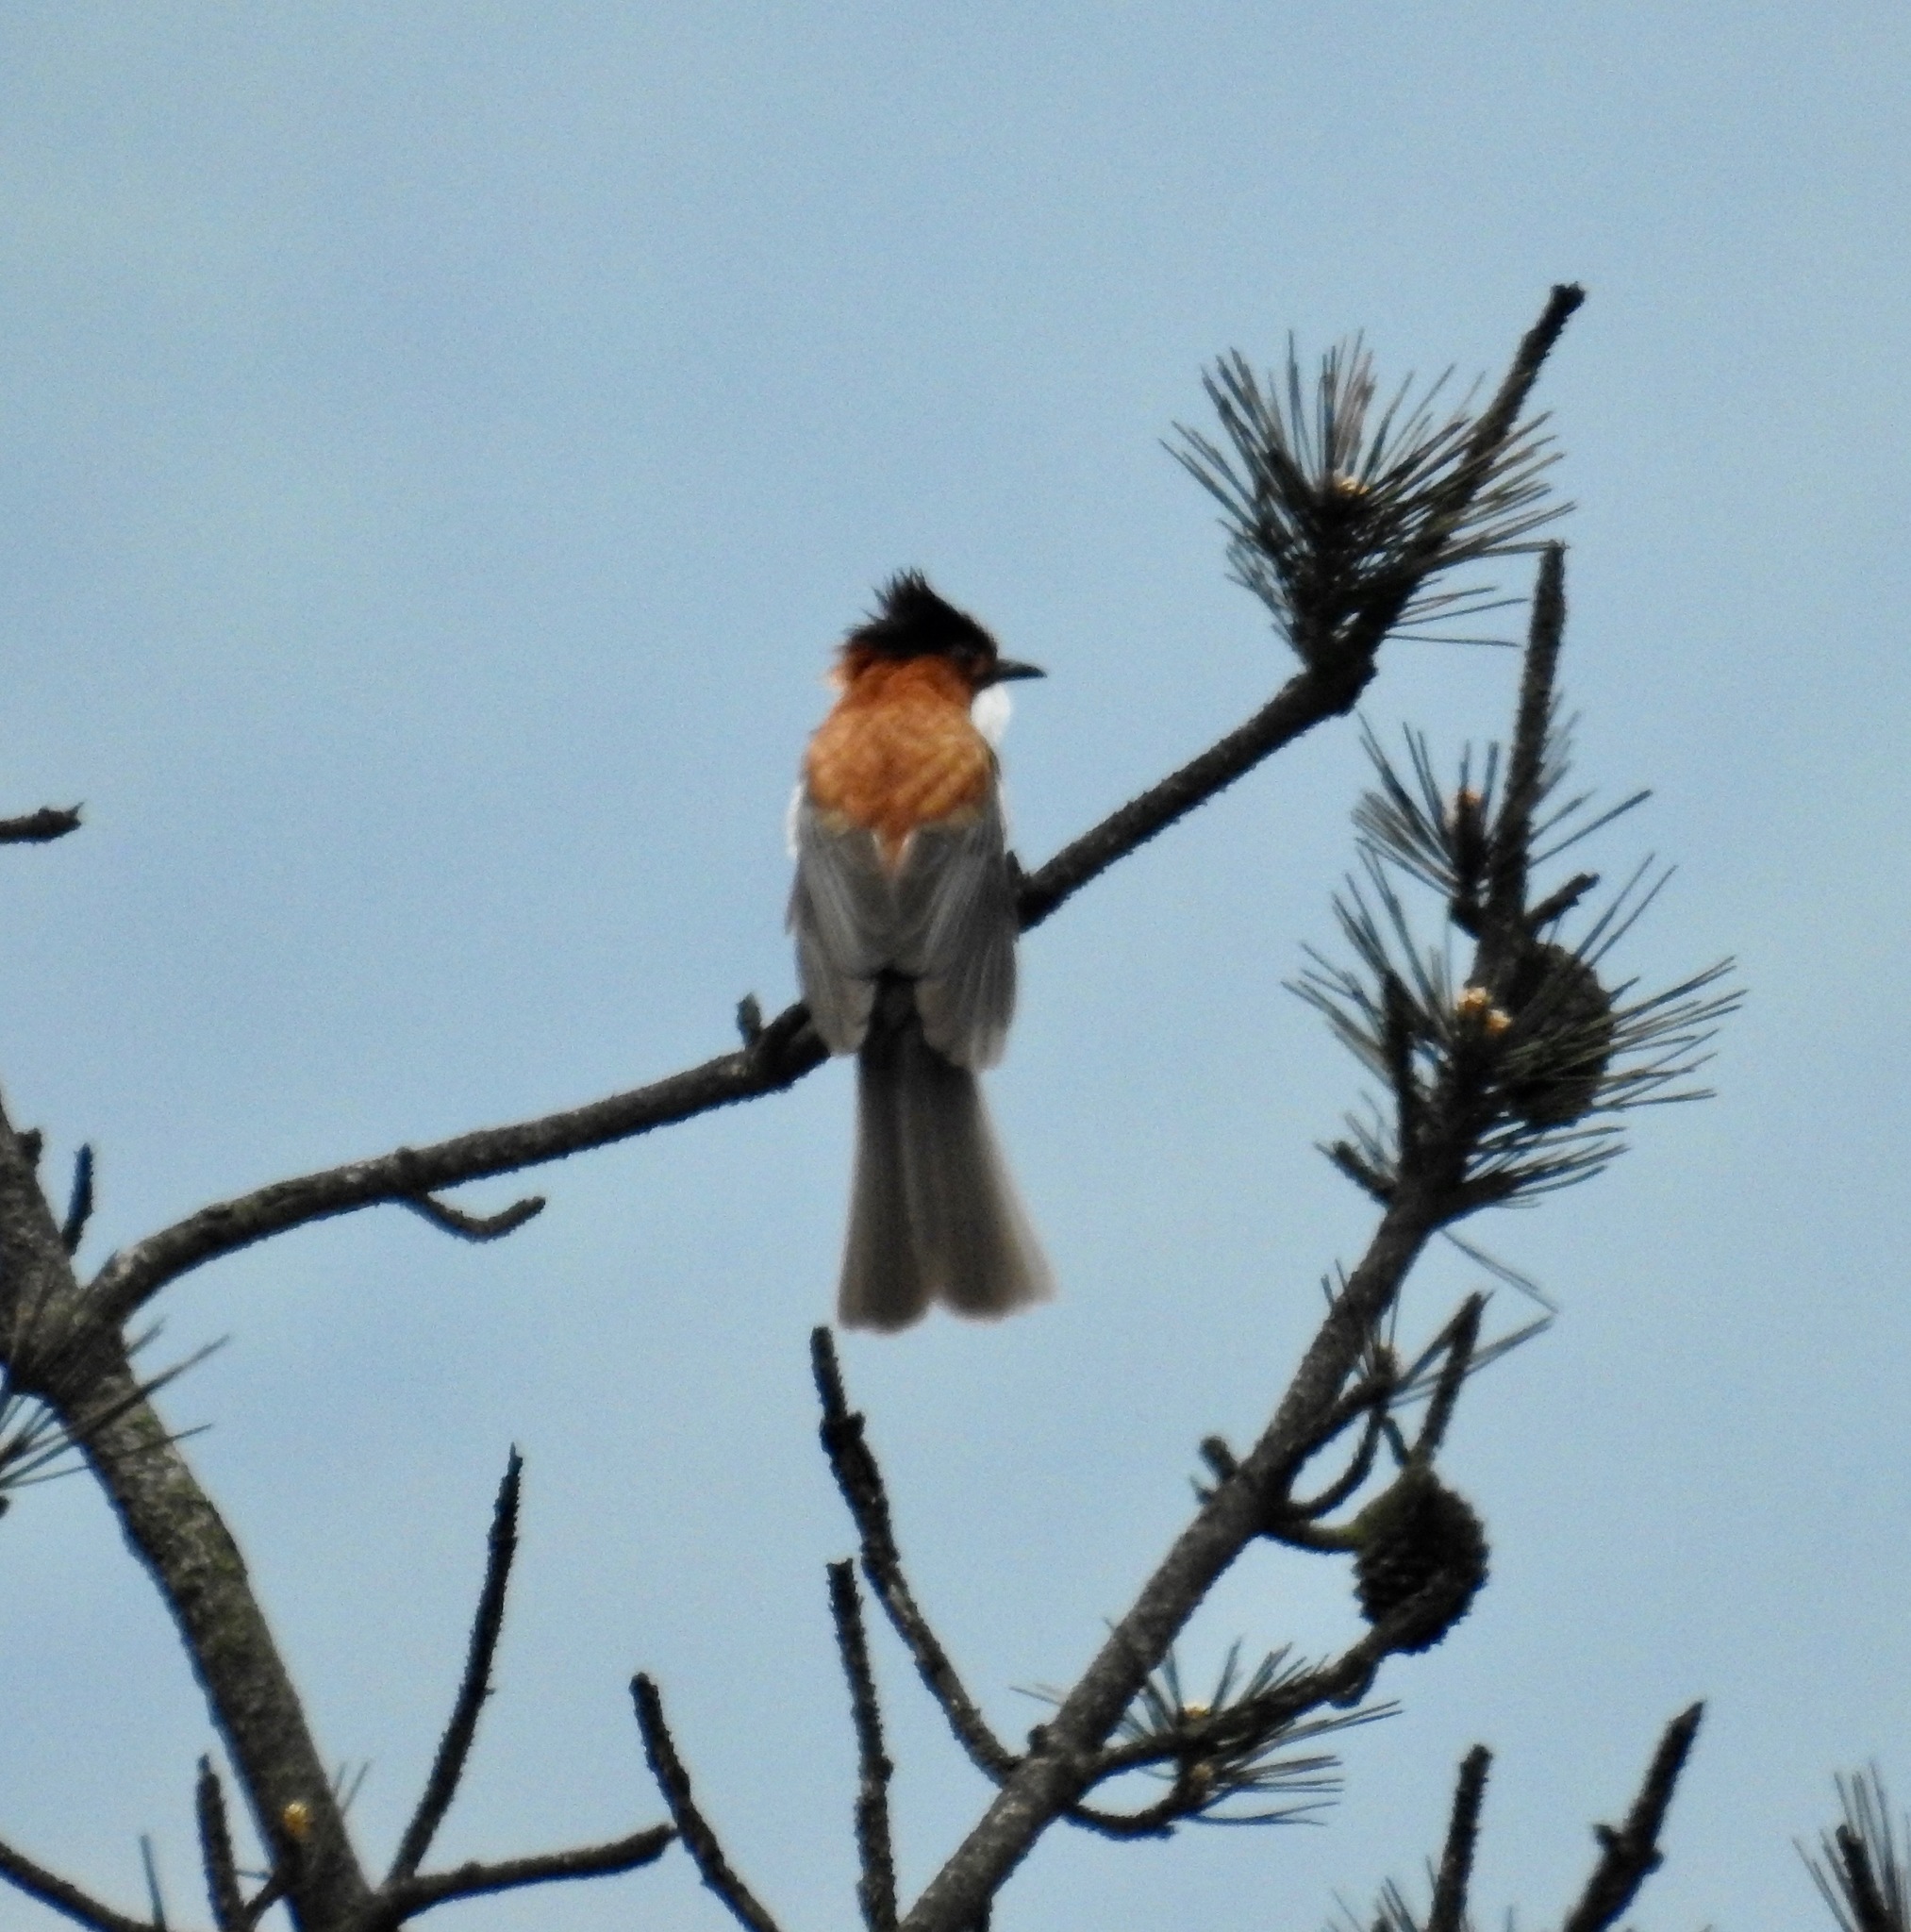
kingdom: Animalia
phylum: Chordata
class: Aves
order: Passeriformes
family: Pycnonotidae
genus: Hemixos
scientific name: Hemixos castanonotus
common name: Chestnut bulbul
